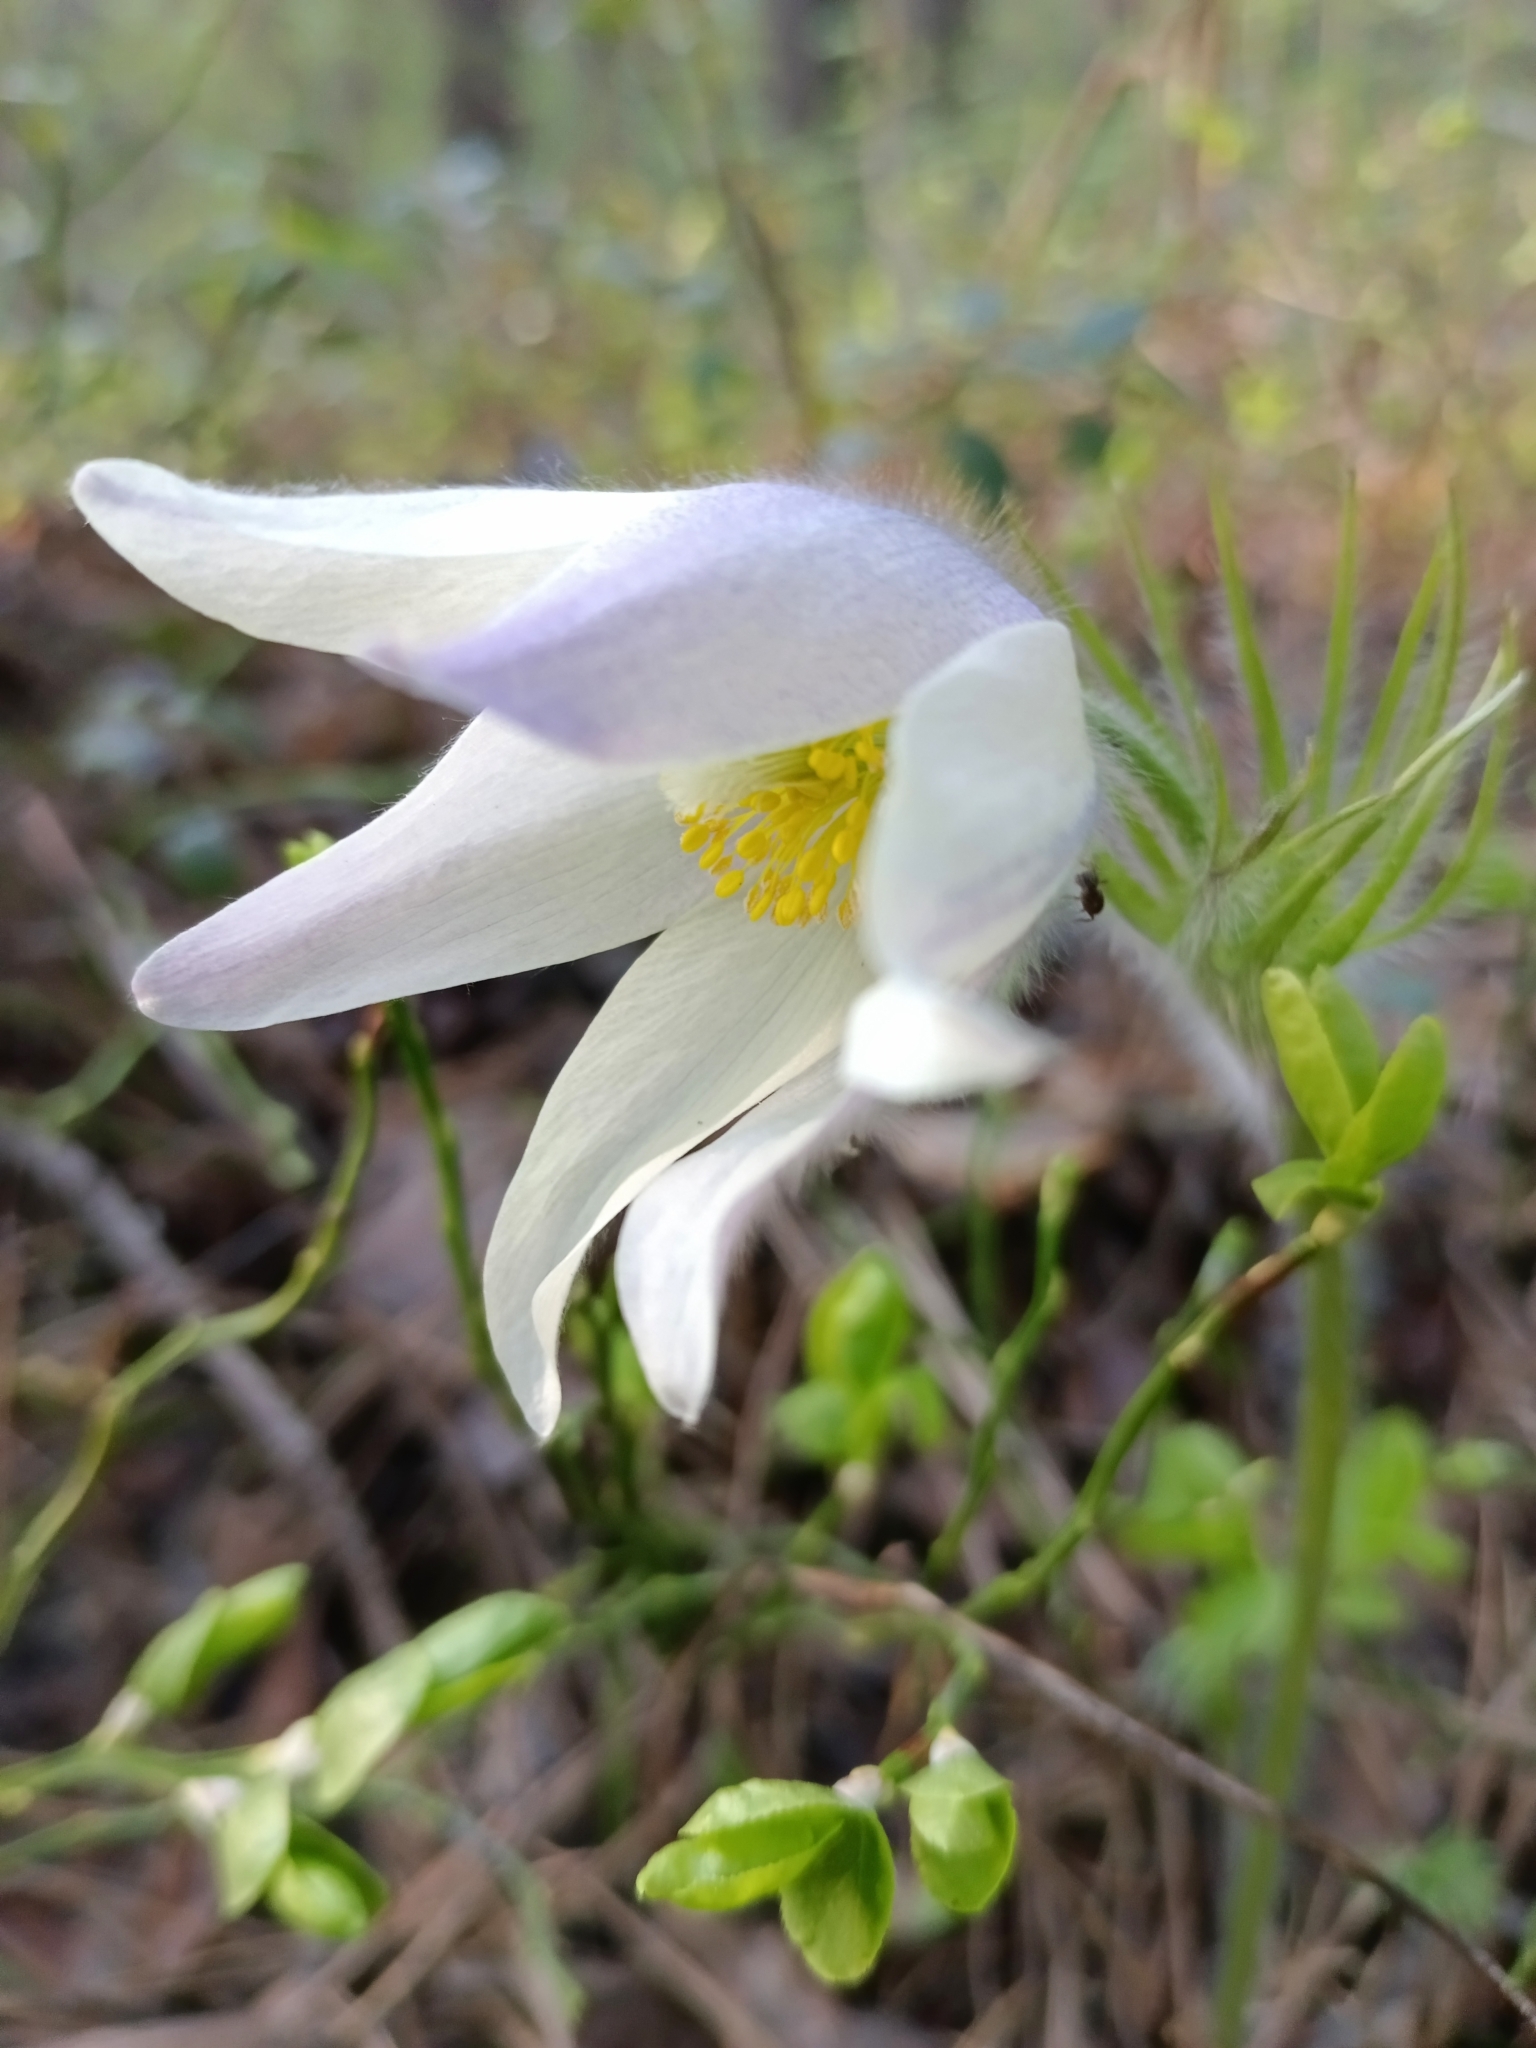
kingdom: Plantae
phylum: Tracheophyta
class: Magnoliopsida
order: Ranunculales
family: Ranunculaceae
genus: Pulsatilla
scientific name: Pulsatilla patens
